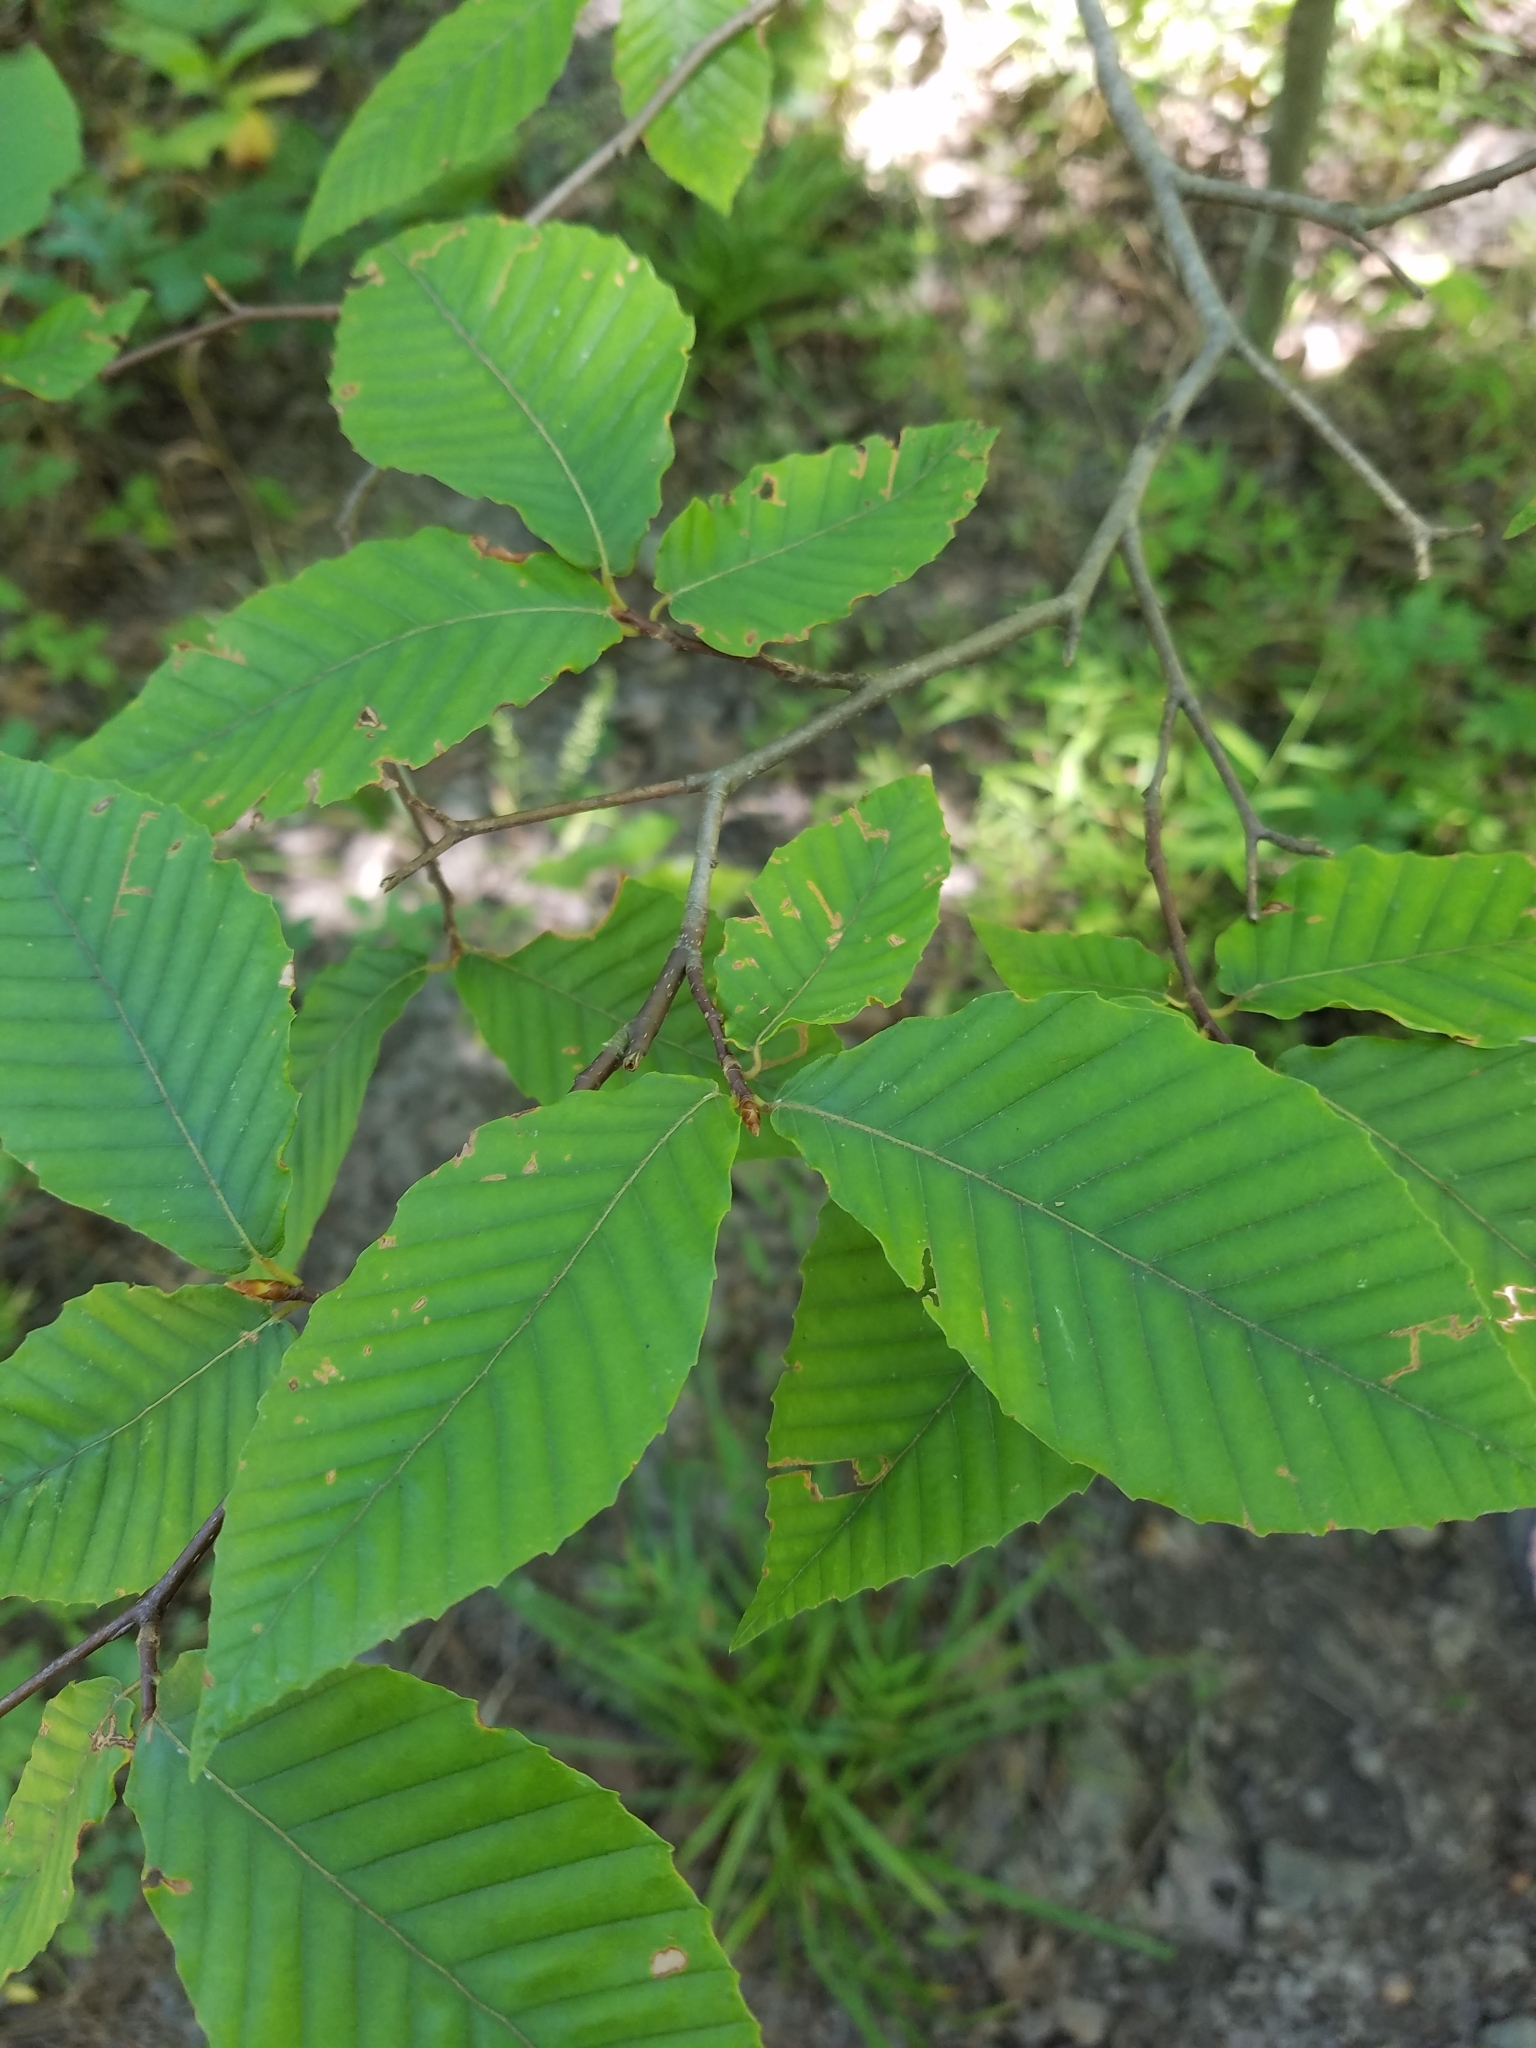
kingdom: Plantae
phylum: Tracheophyta
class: Magnoliopsida
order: Fagales
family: Fagaceae
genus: Fagus
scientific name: Fagus grandifolia
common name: American beech
